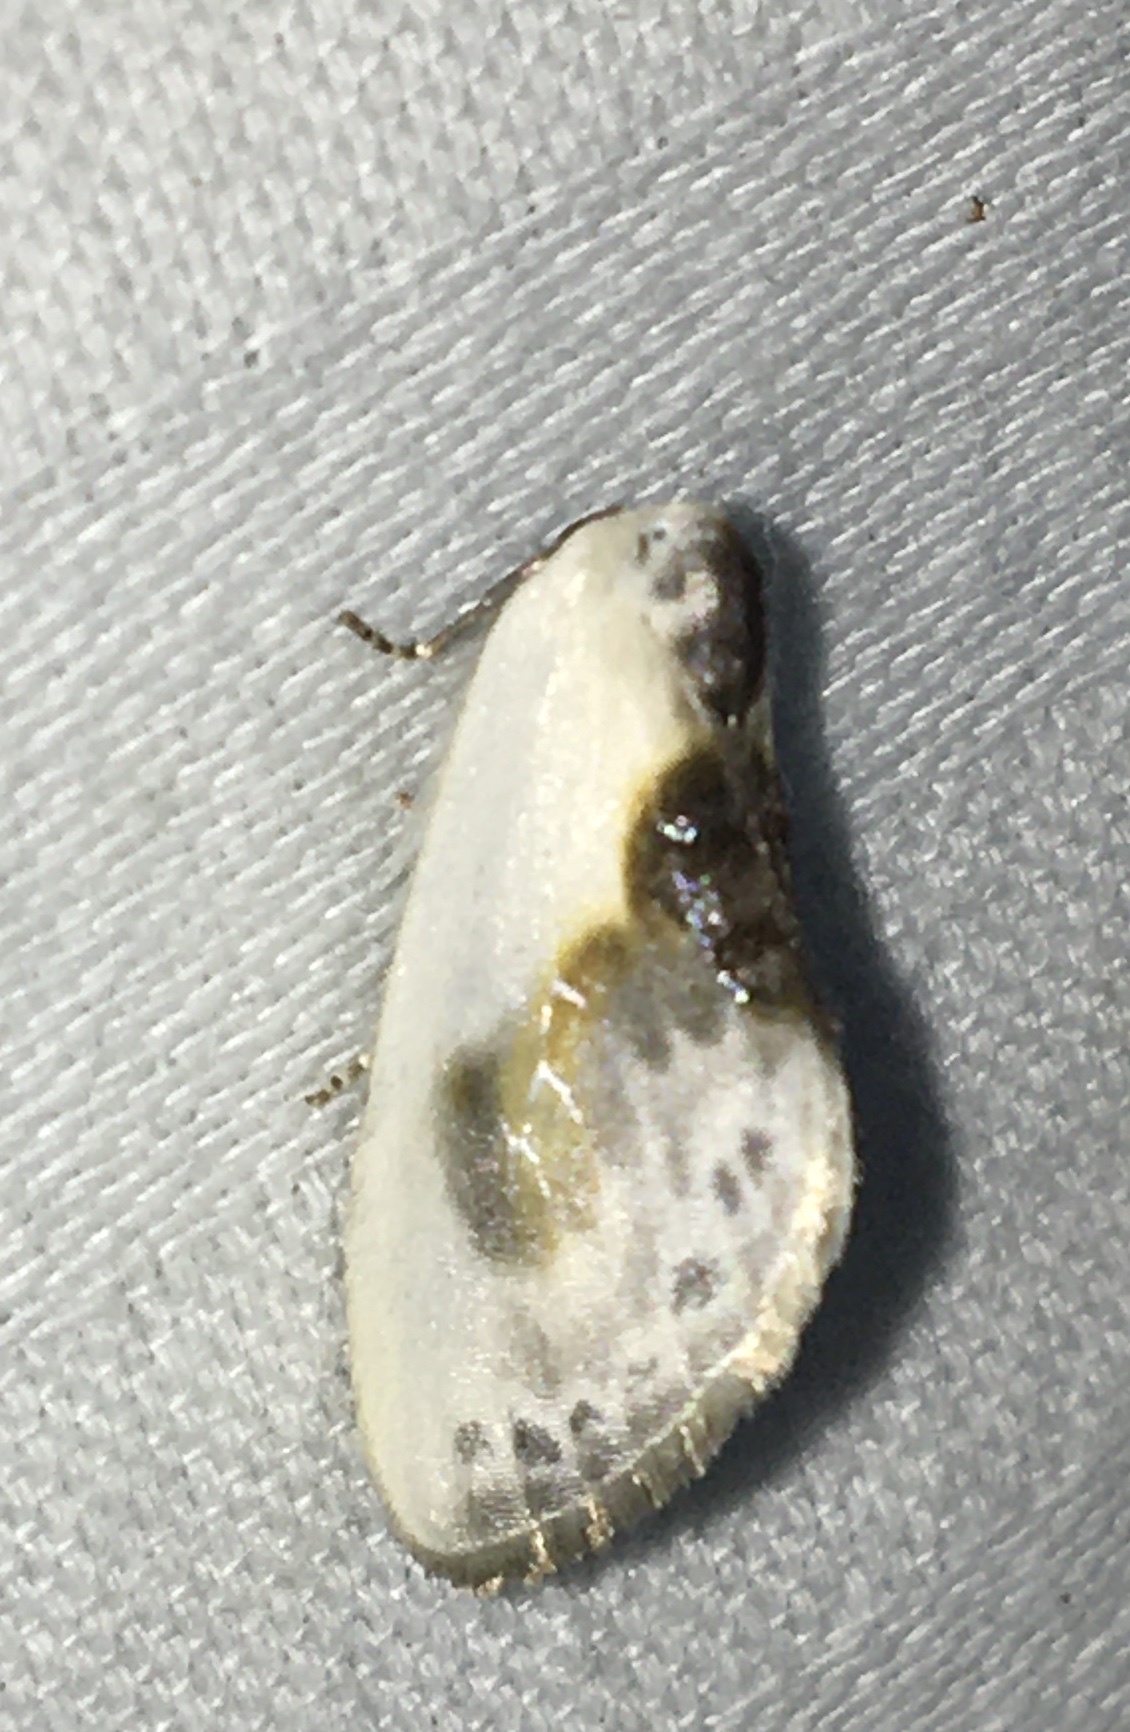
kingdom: Animalia
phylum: Arthropoda
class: Insecta
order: Lepidoptera
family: Drepanidae
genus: Cilix
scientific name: Cilix glaucata
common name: Chinese character
